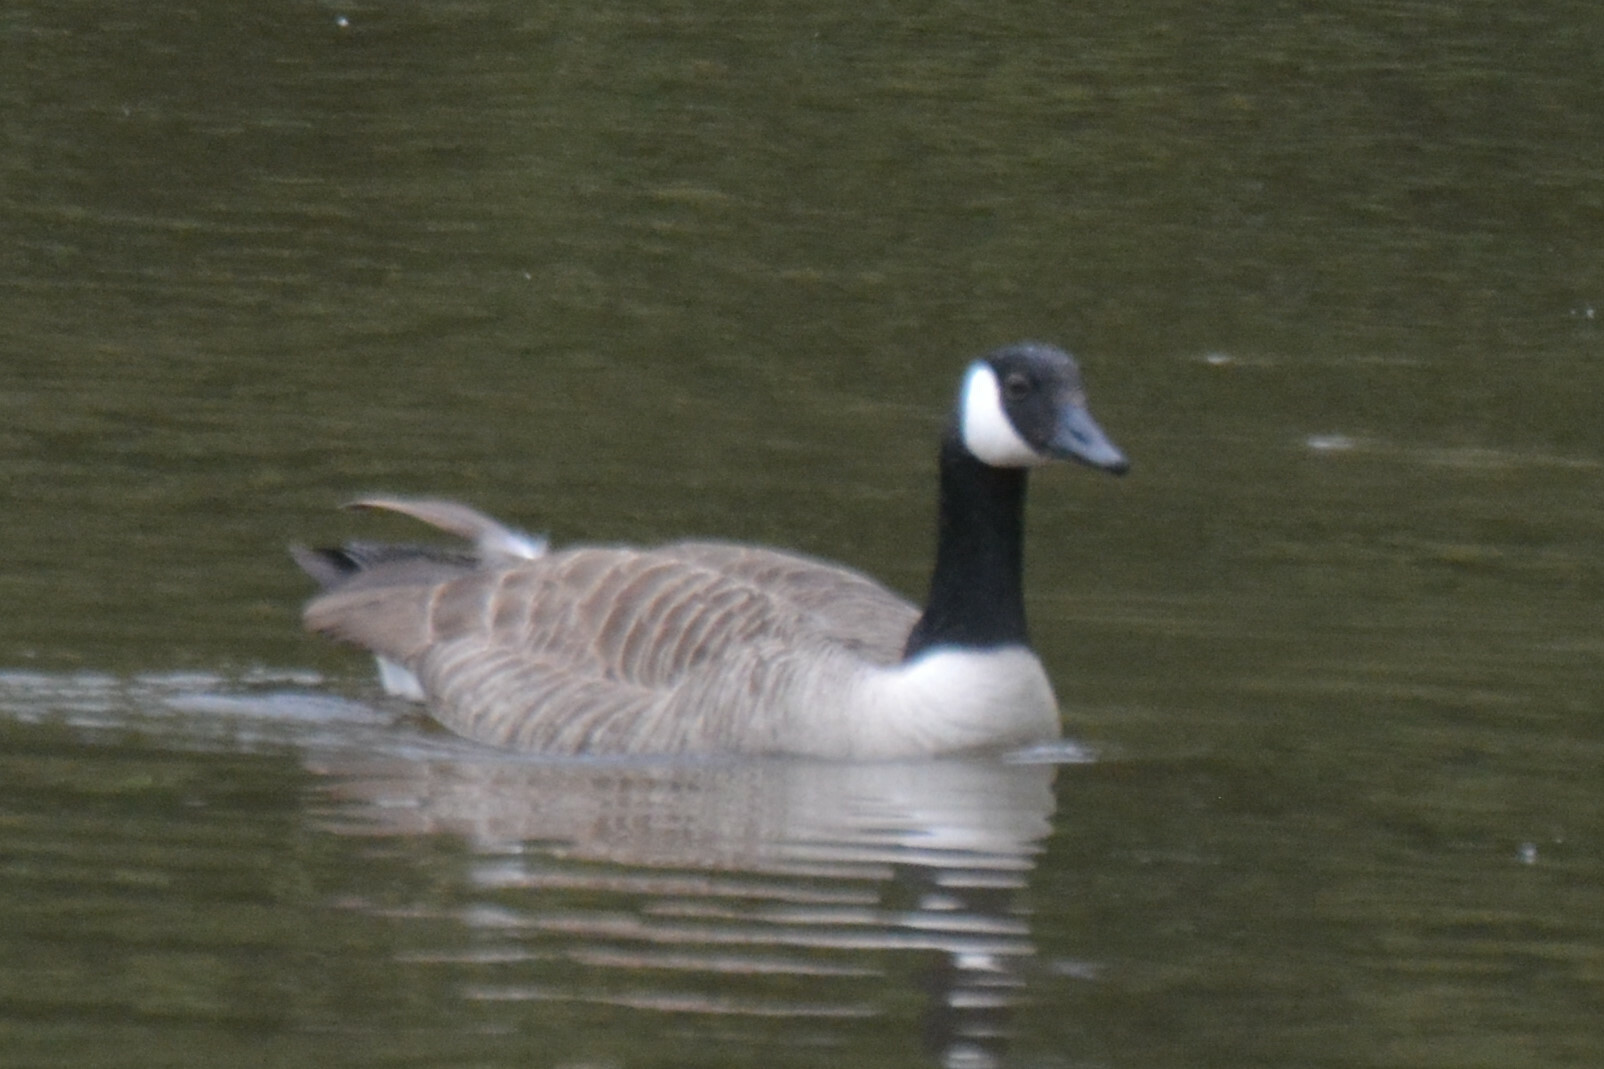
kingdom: Animalia
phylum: Chordata
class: Aves
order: Anseriformes
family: Anatidae
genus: Branta
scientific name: Branta canadensis
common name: Canada goose
